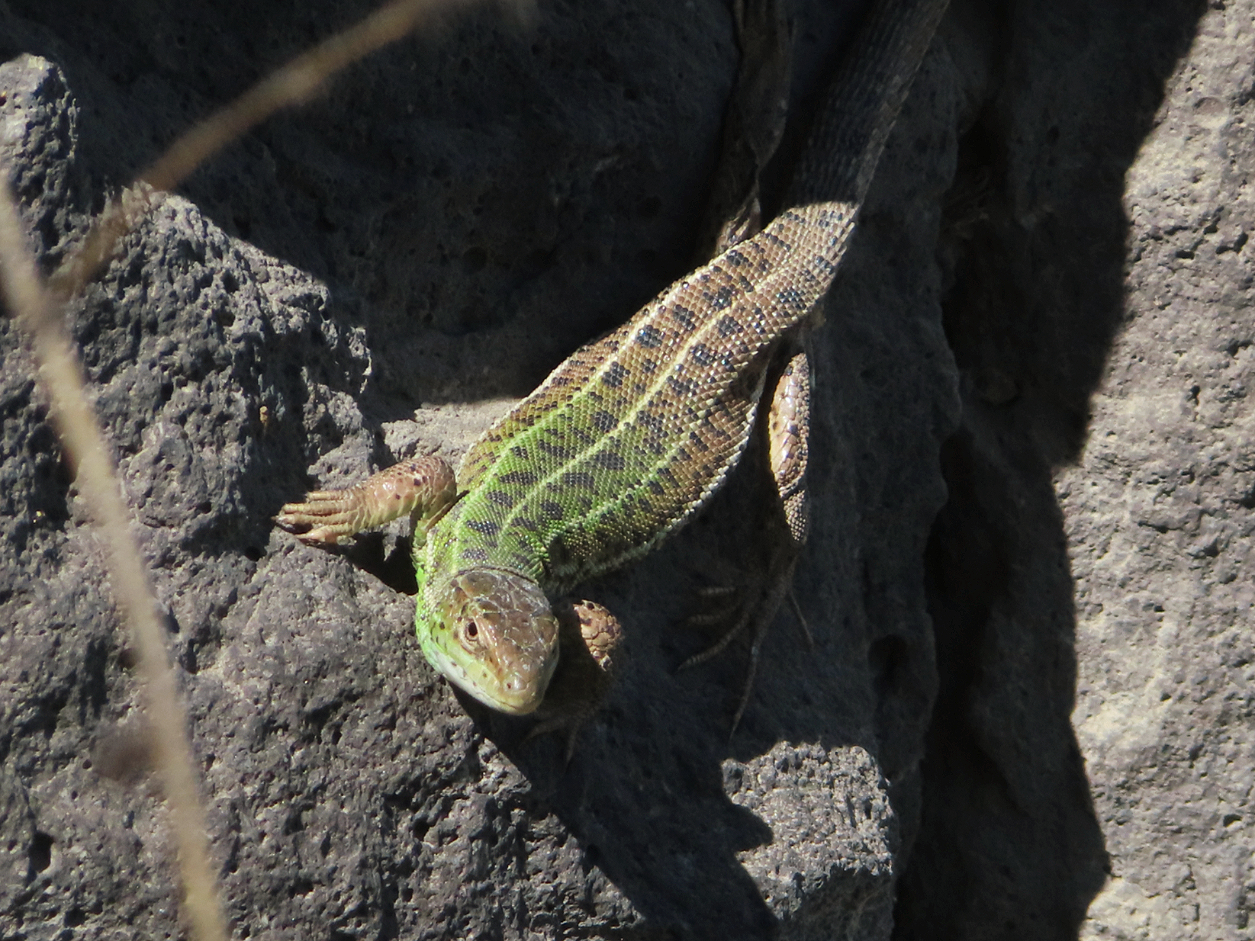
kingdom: Animalia
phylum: Chordata
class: Squamata
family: Lacertidae
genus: Lacerta
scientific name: Lacerta strigata
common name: Caspian green lizard
